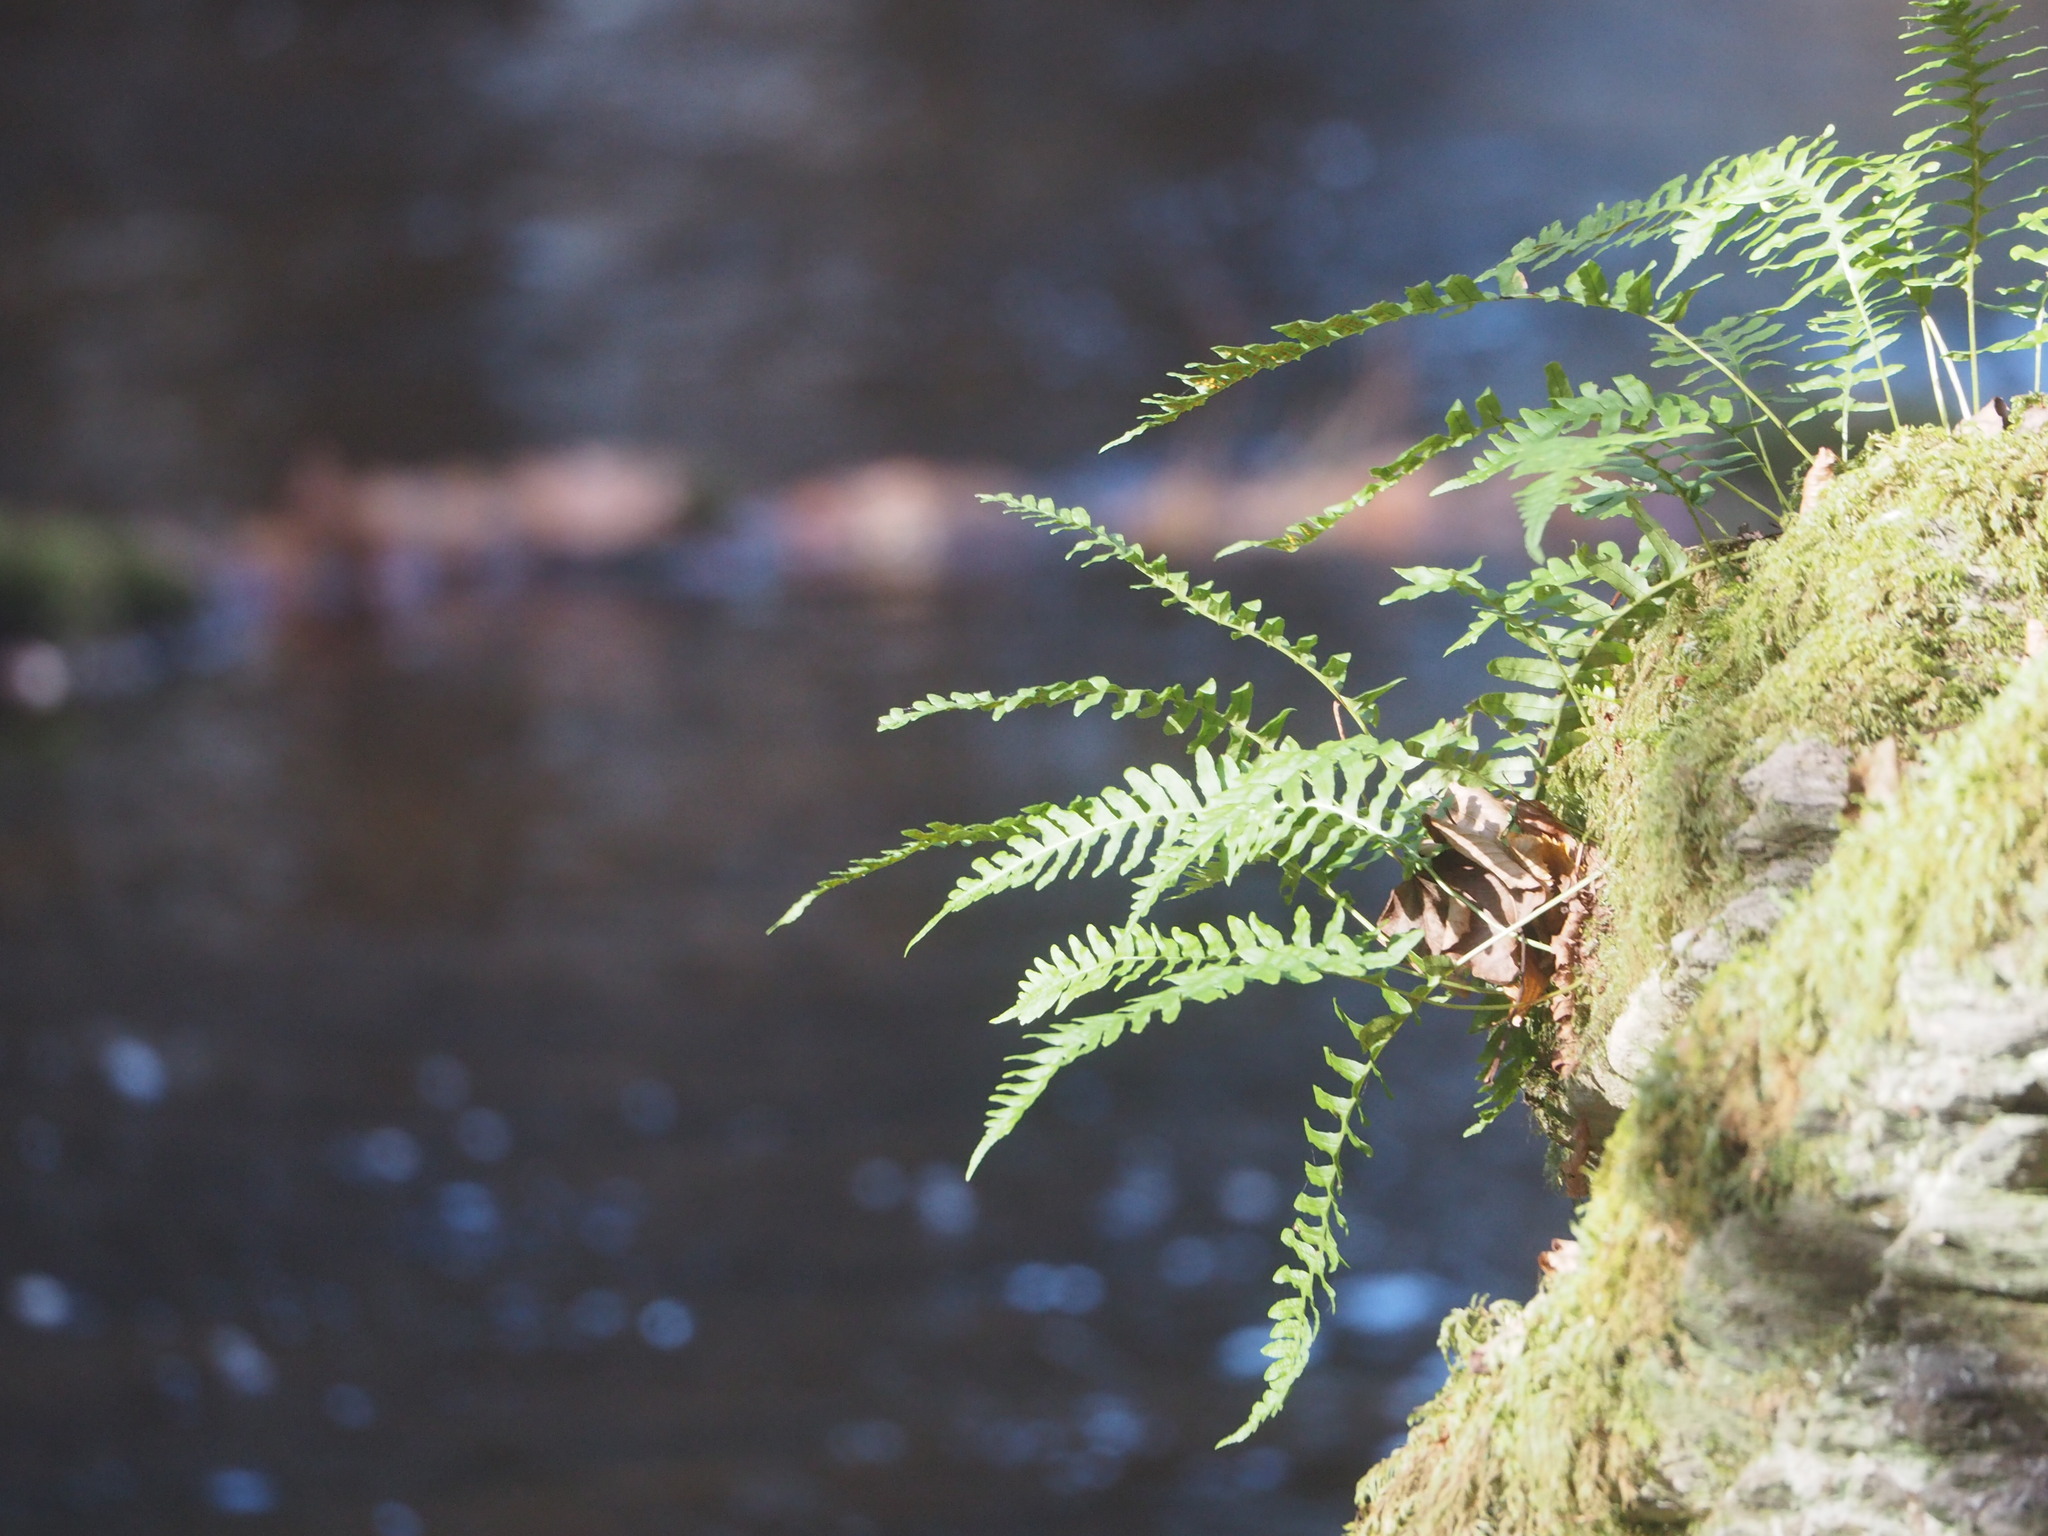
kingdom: Plantae
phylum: Tracheophyta
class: Polypodiopsida
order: Polypodiales
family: Polypodiaceae
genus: Polypodium
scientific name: Polypodium
